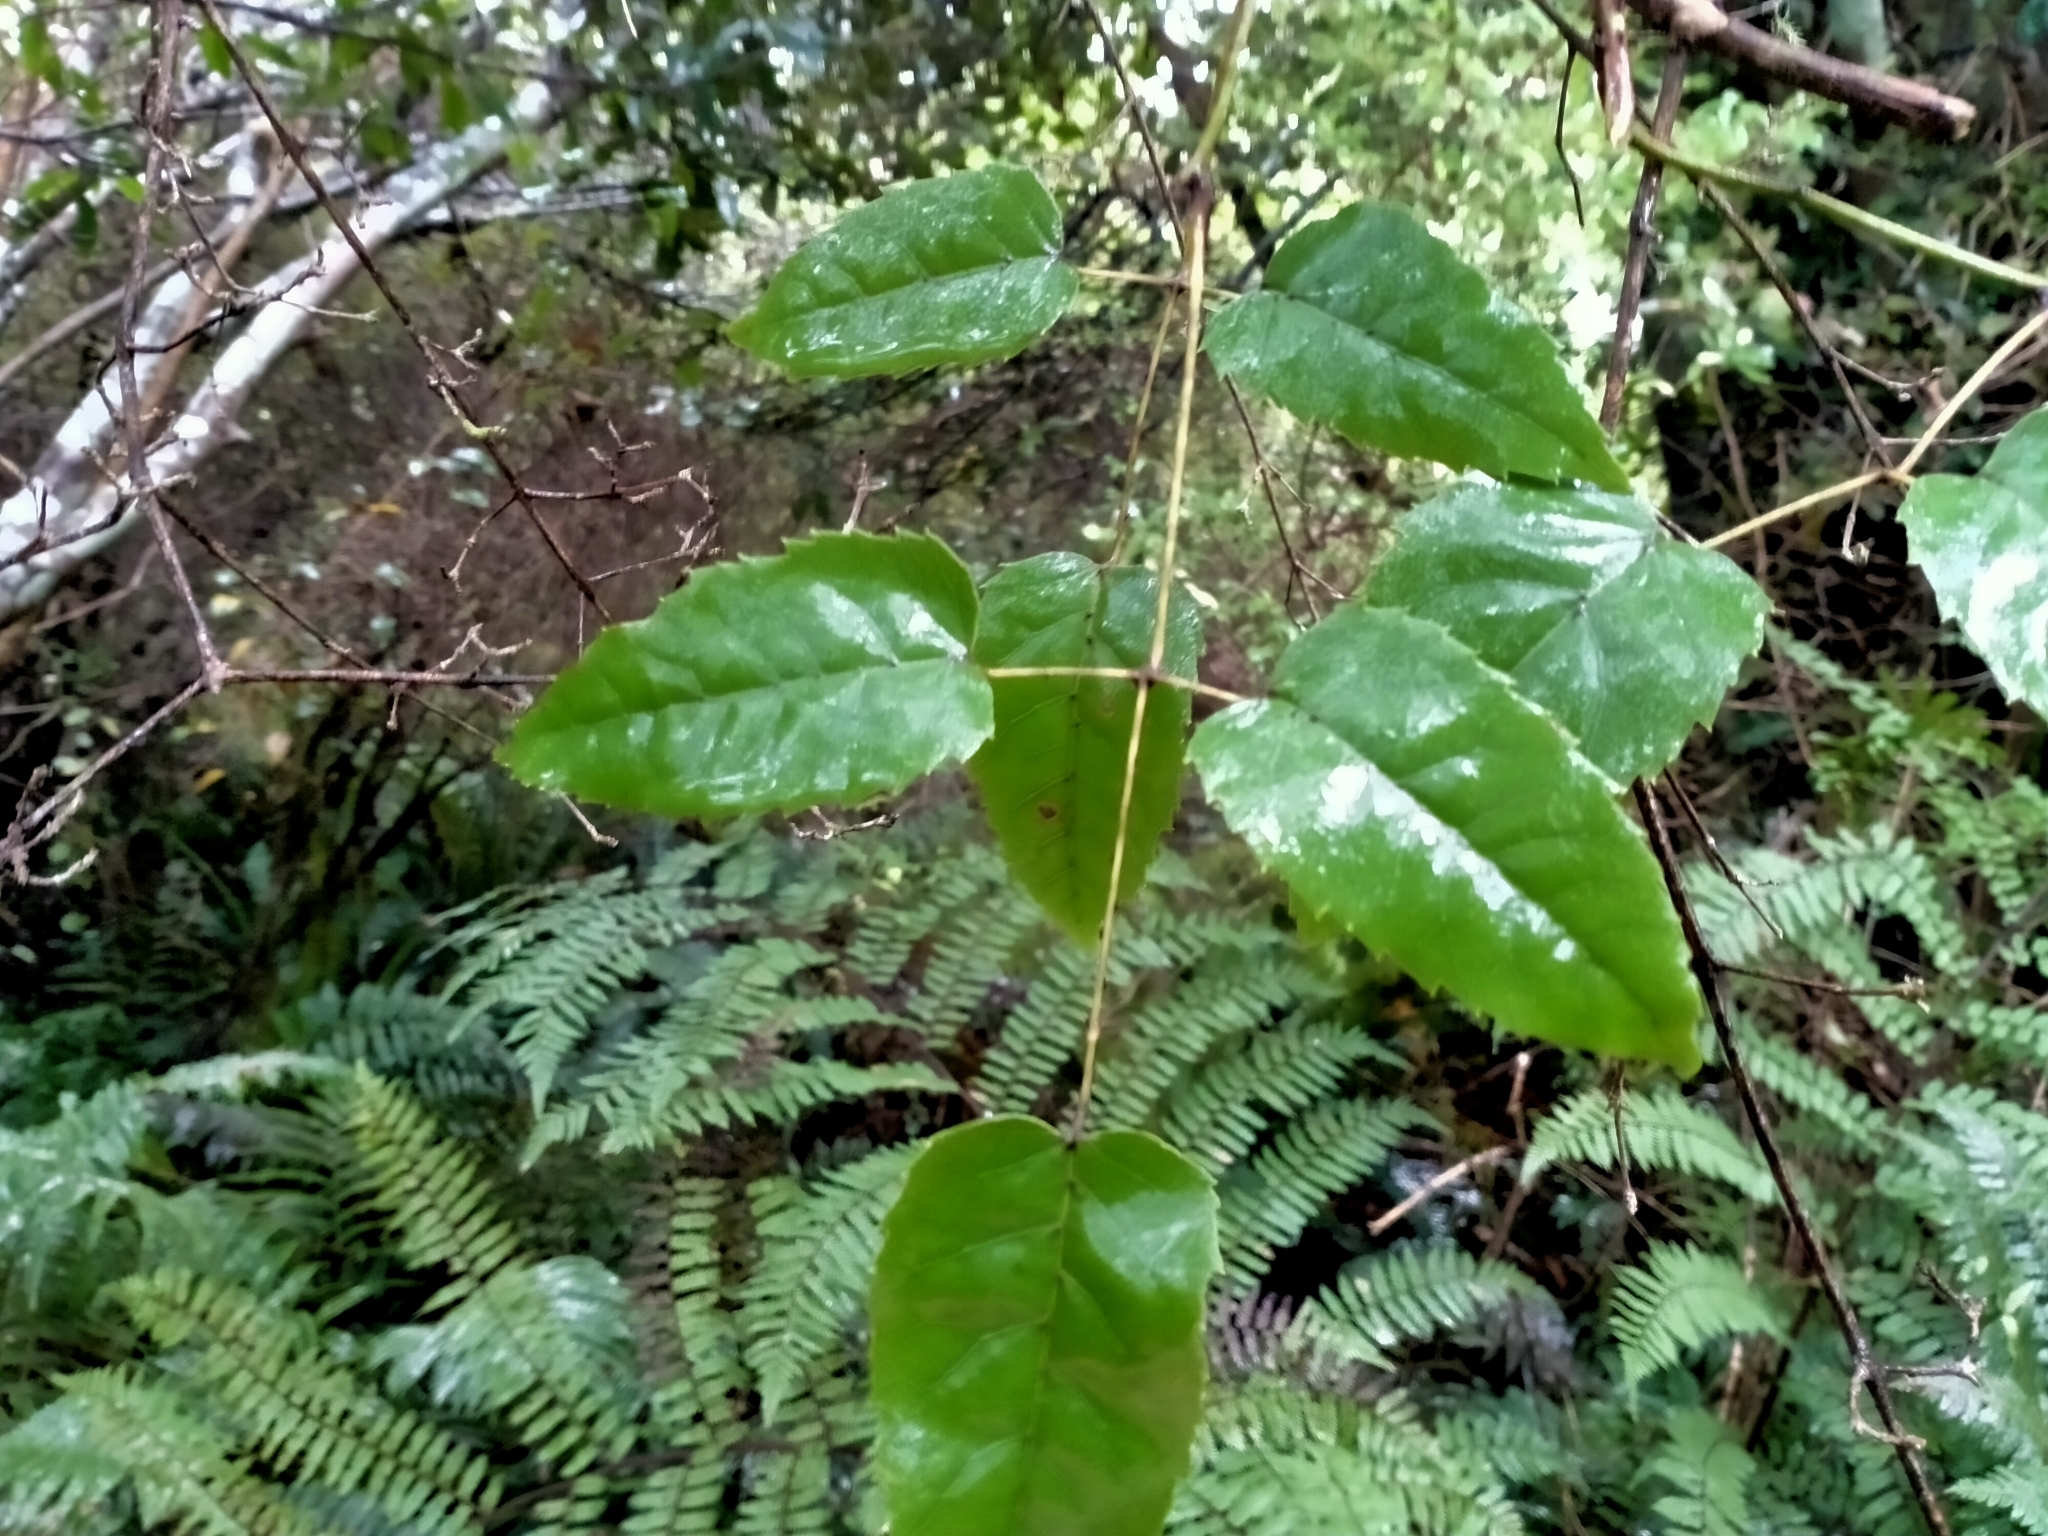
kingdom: Plantae
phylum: Tracheophyta
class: Magnoliopsida
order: Rosales
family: Rosaceae
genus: Rubus
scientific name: Rubus cissoides
